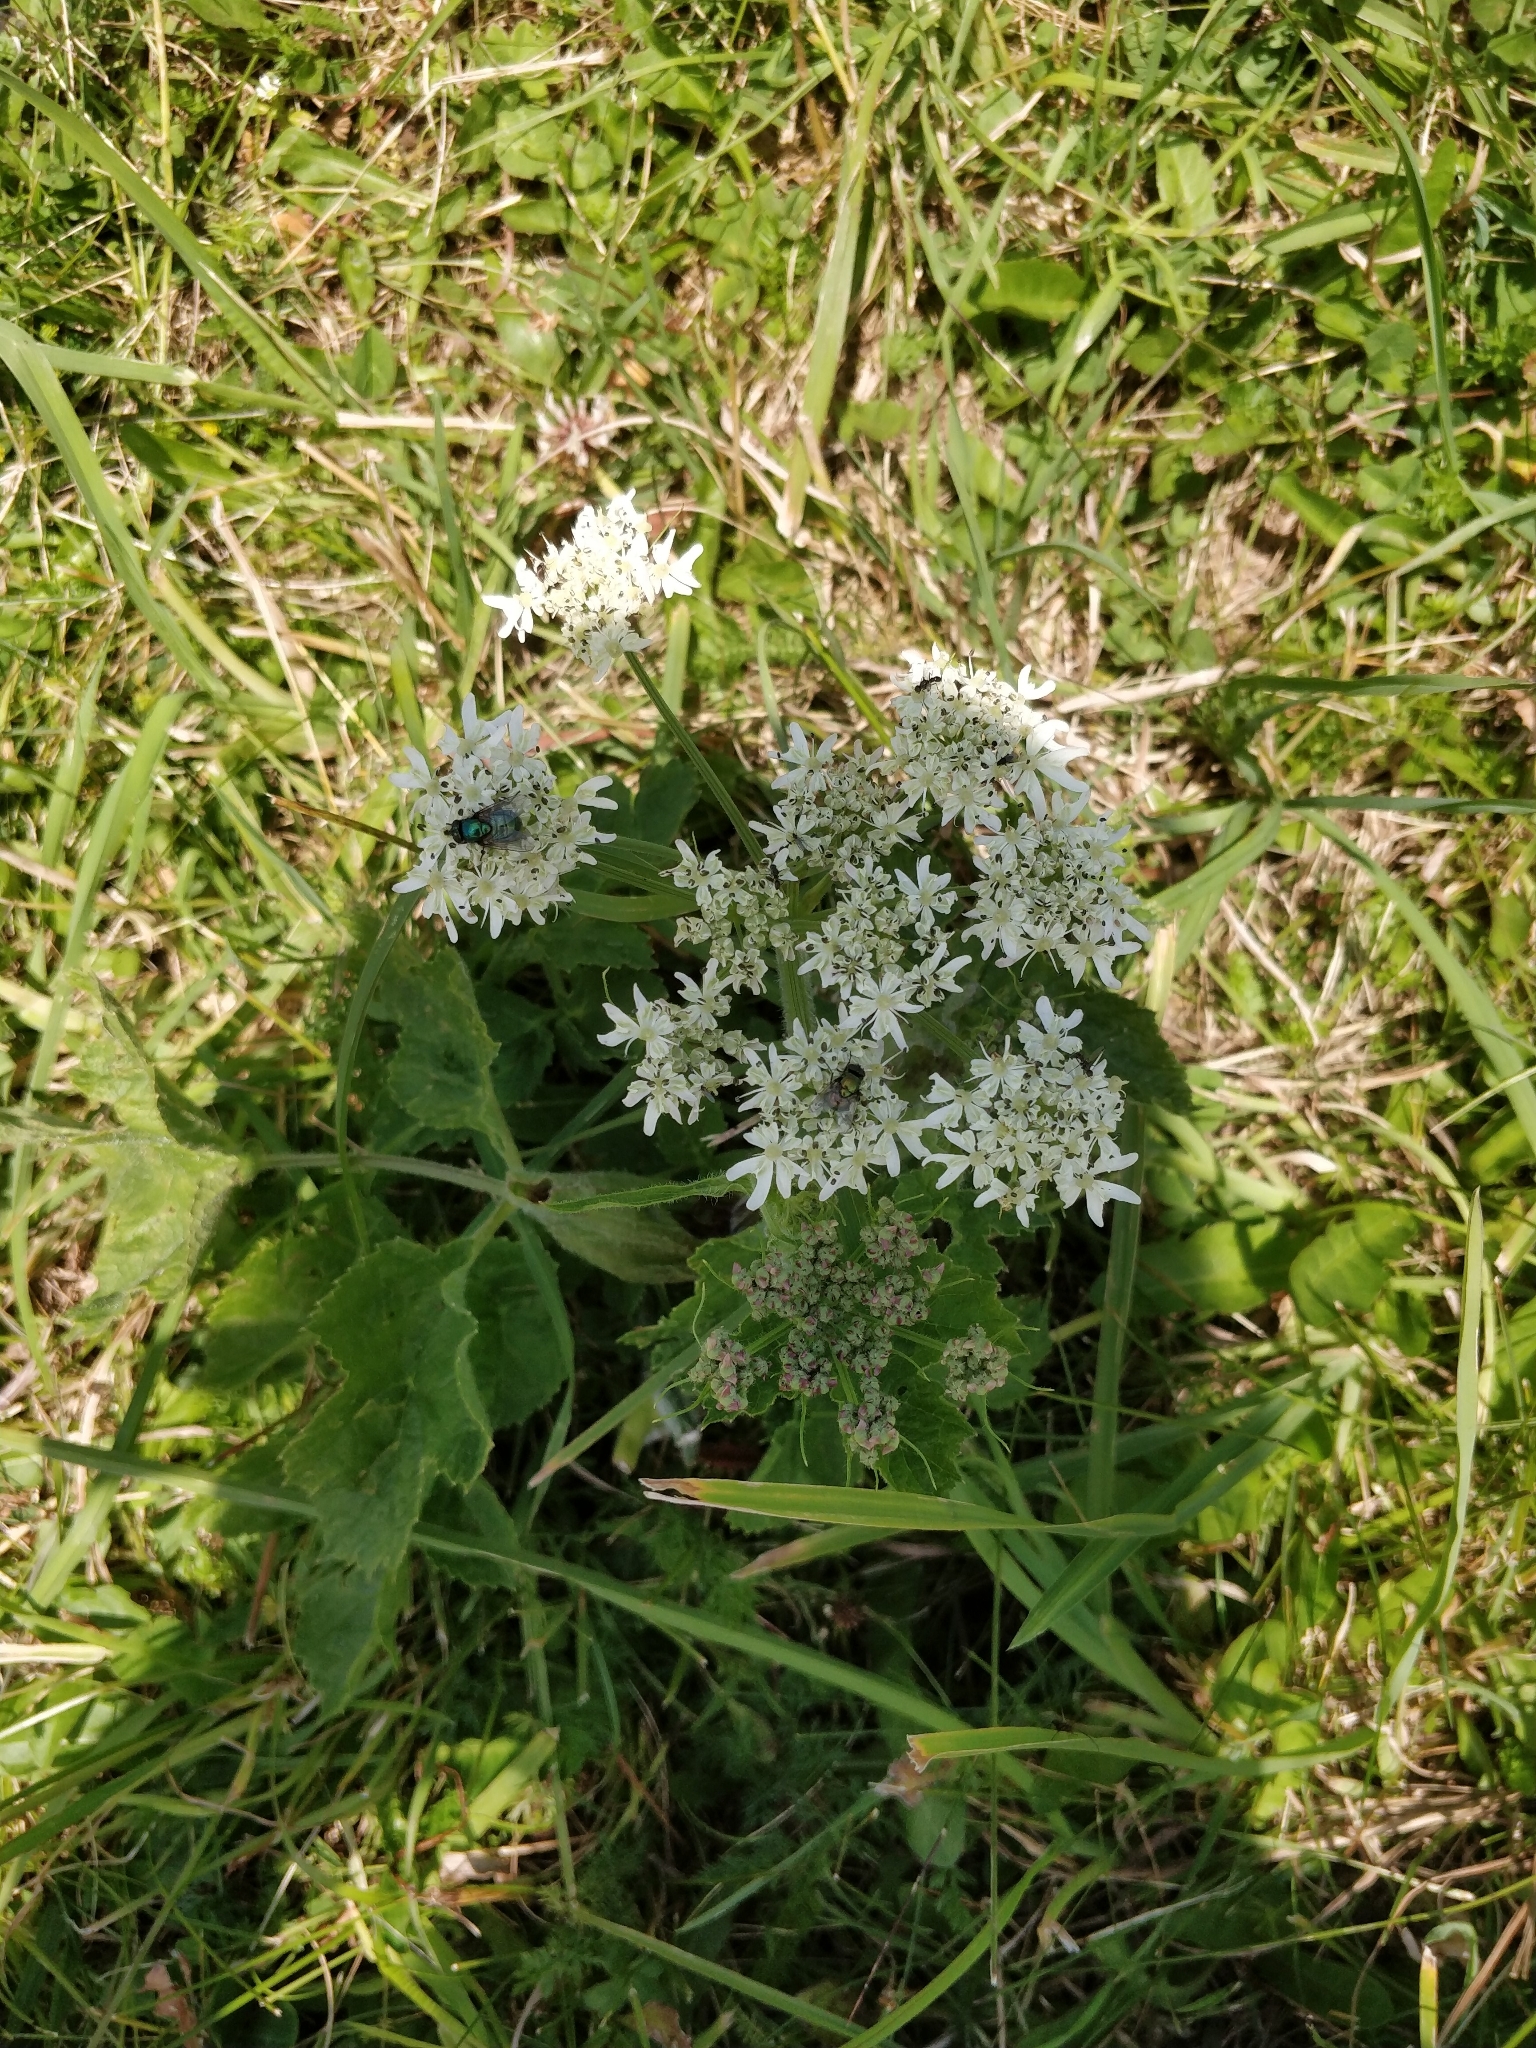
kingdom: Plantae
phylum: Tracheophyta
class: Magnoliopsida
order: Apiales
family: Apiaceae
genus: Heracleum
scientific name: Heracleum sphondylium
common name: Hogweed
